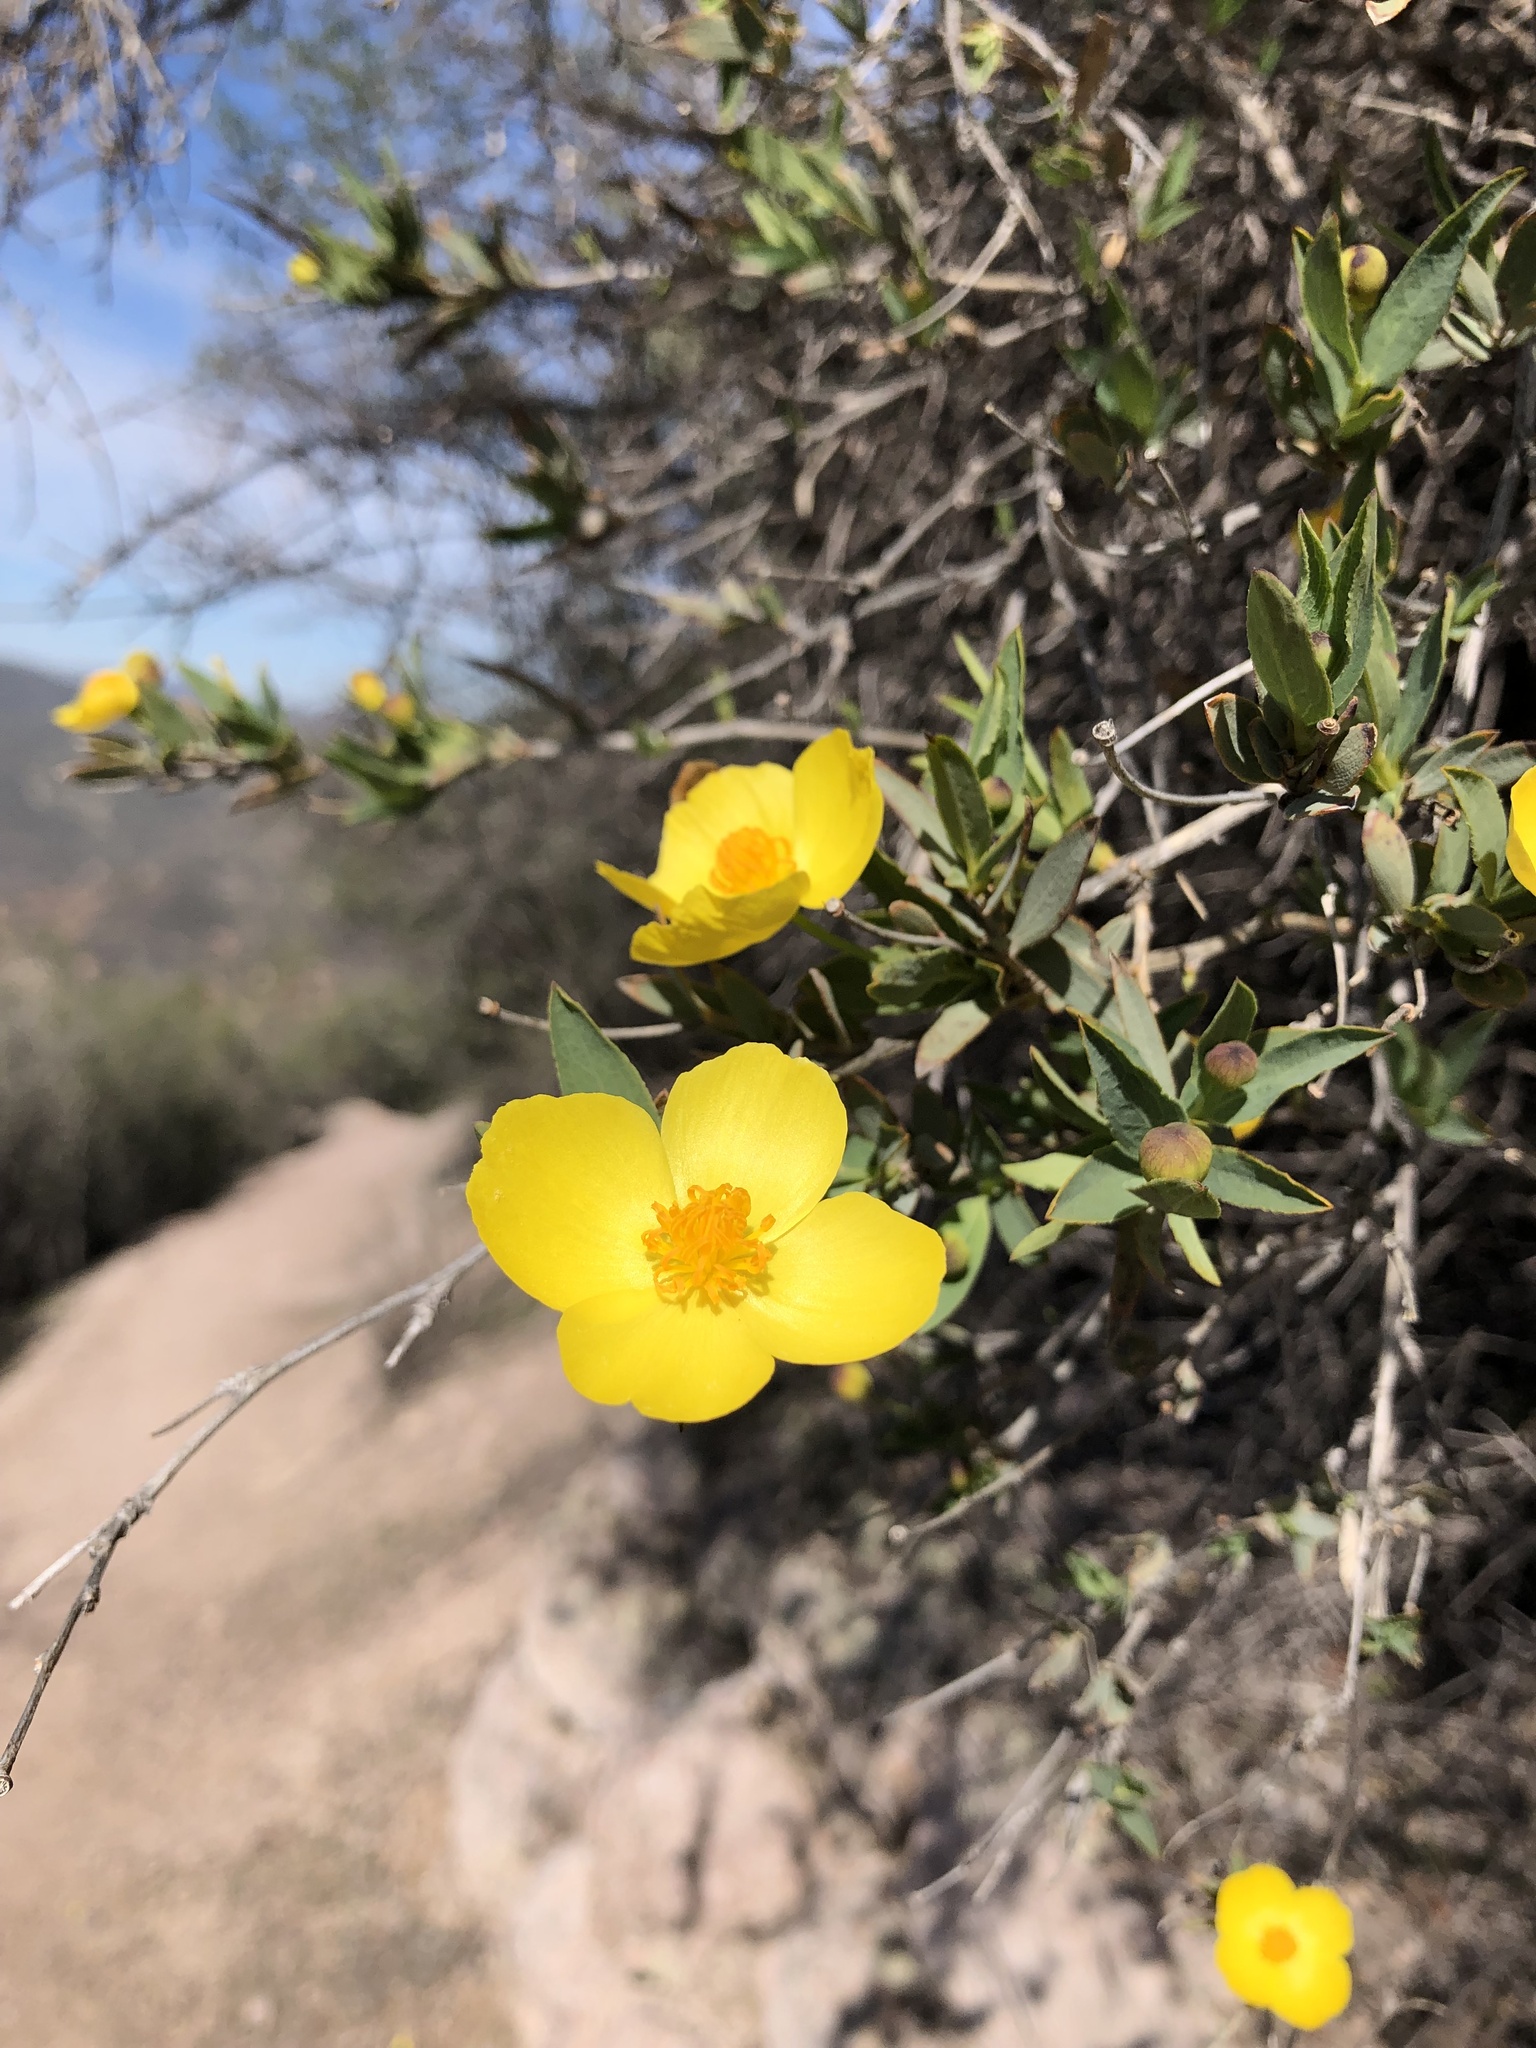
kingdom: Plantae
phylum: Tracheophyta
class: Magnoliopsida
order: Ranunculales
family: Papaveraceae
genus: Dendromecon
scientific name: Dendromecon rigida
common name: Tree poppy
